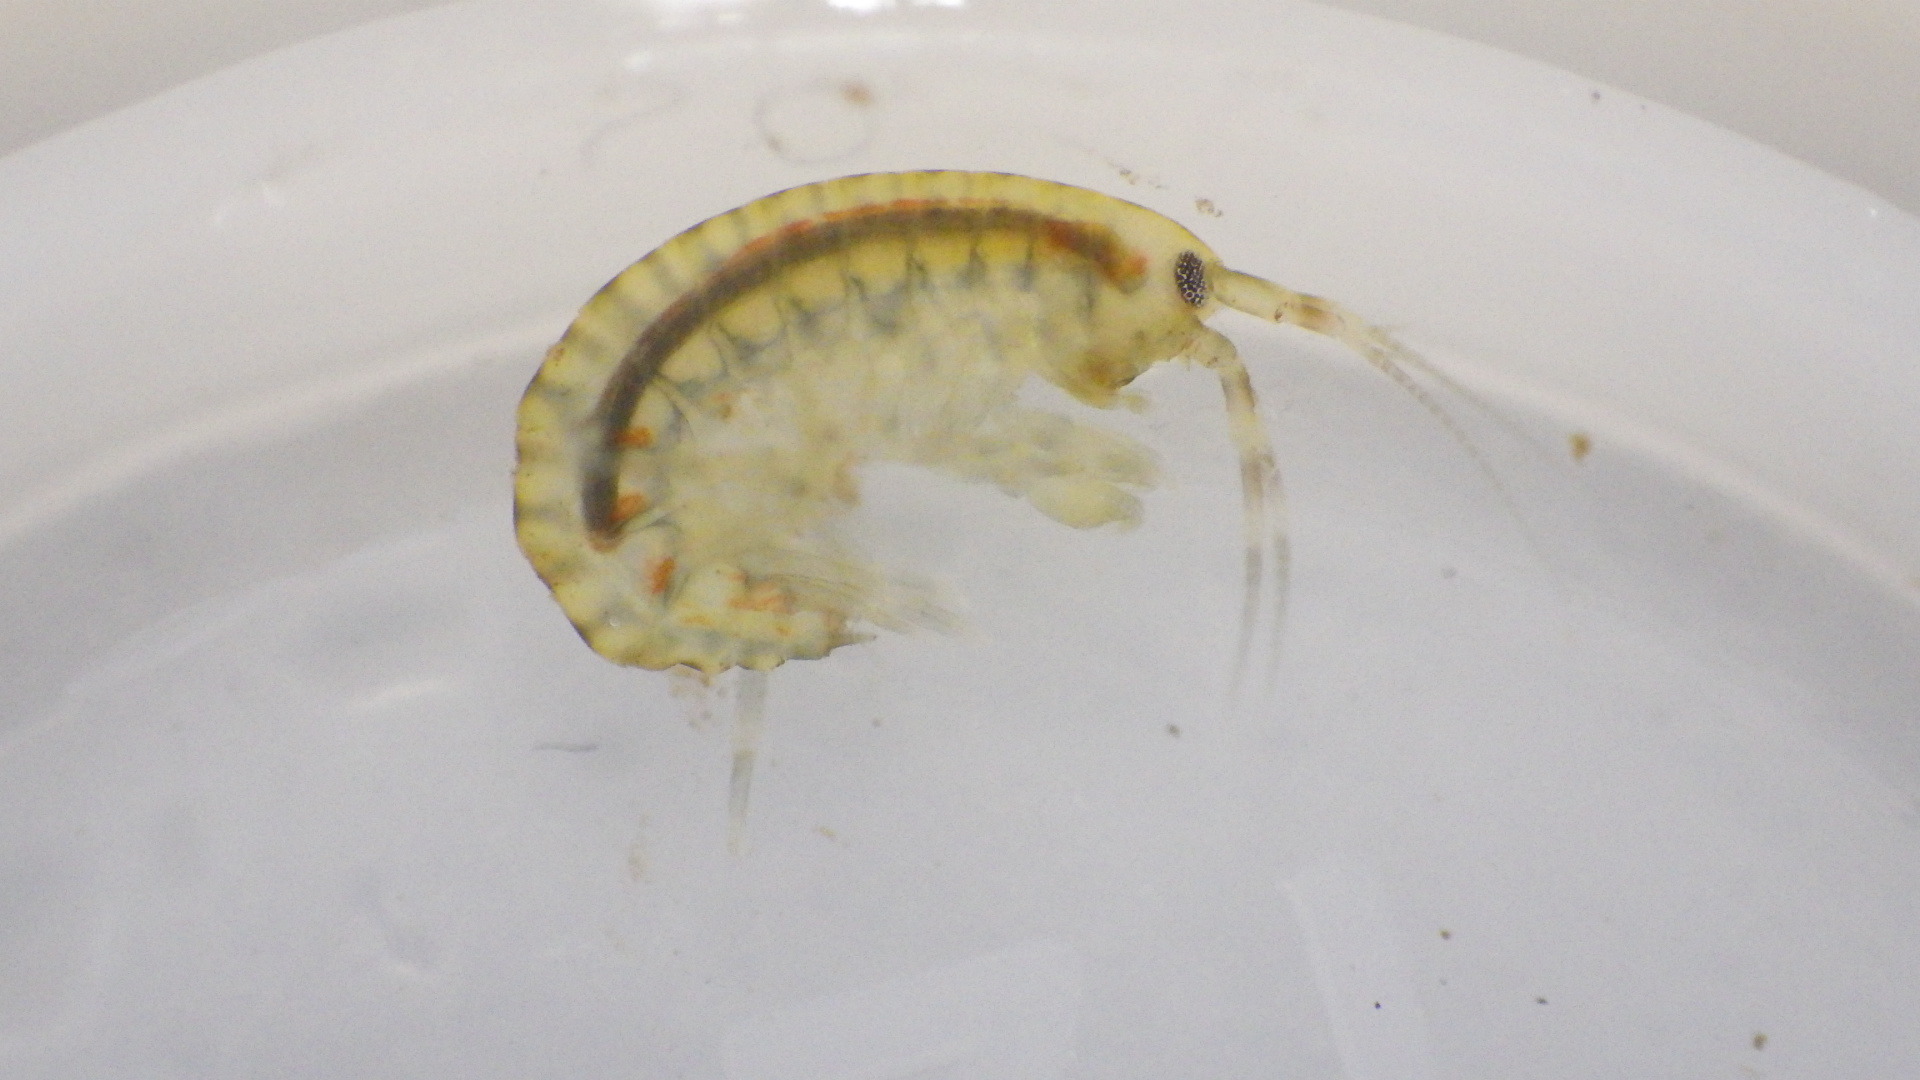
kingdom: Animalia
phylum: Arthropoda
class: Malacostraca
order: Amphipoda
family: Gammaridae
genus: Gammarus
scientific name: Gammarus fasciatus
